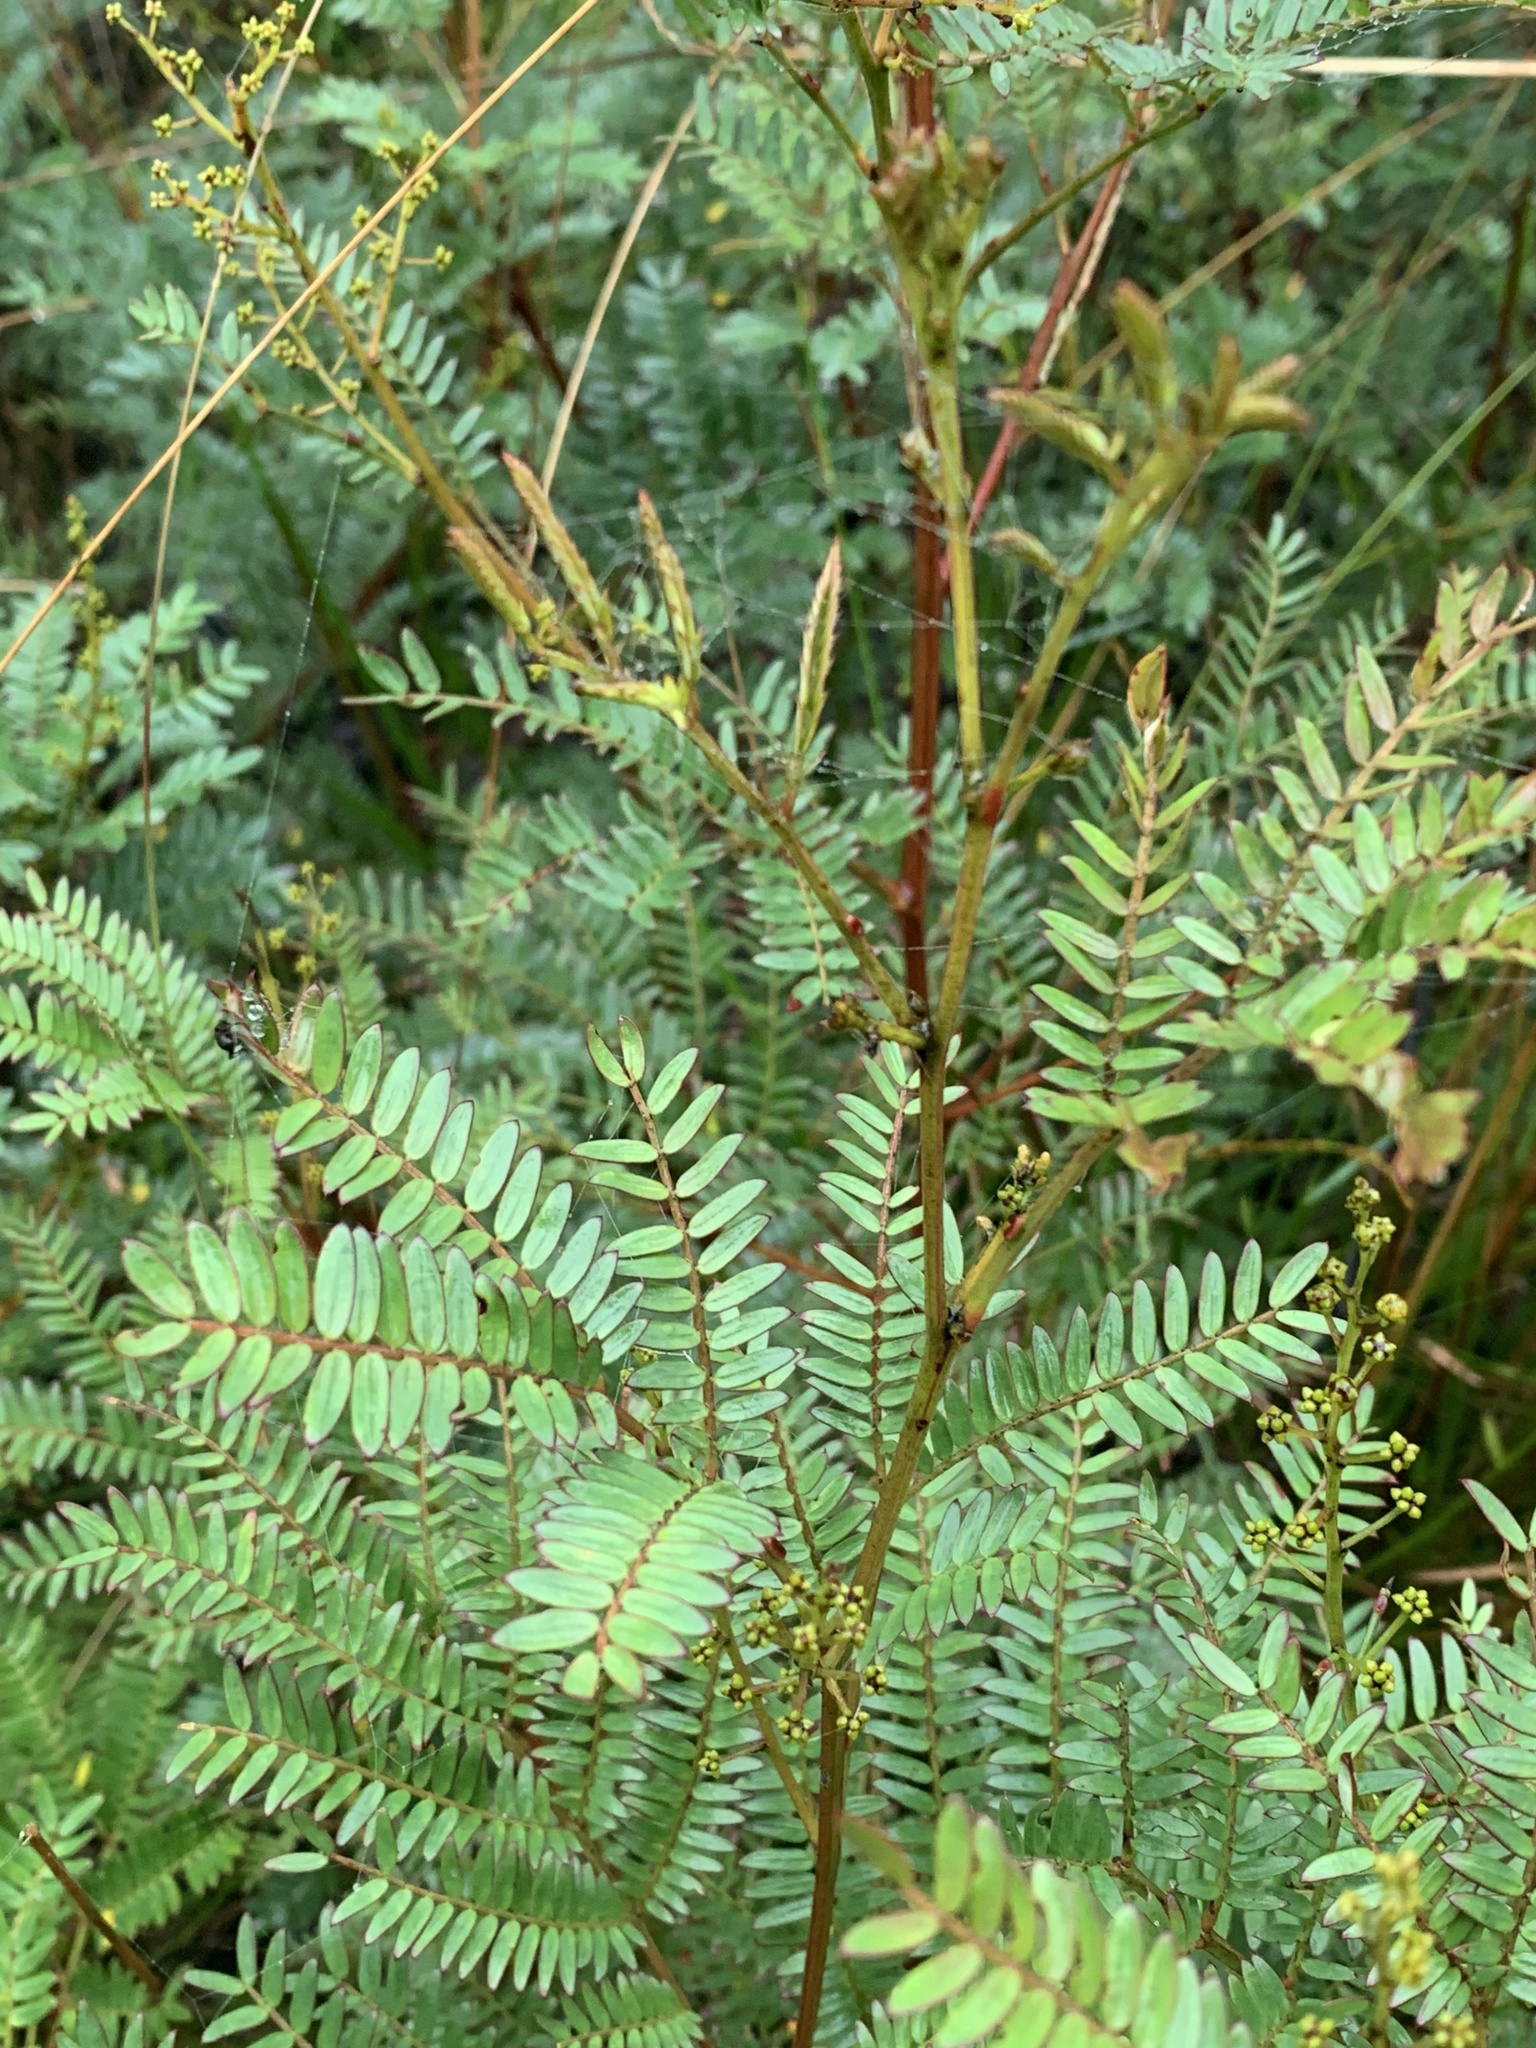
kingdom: Plantae
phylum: Tracheophyta
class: Magnoliopsida
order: Fabales
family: Fabaceae
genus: Acacia
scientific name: Acacia terminalis
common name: Cedar wattle
